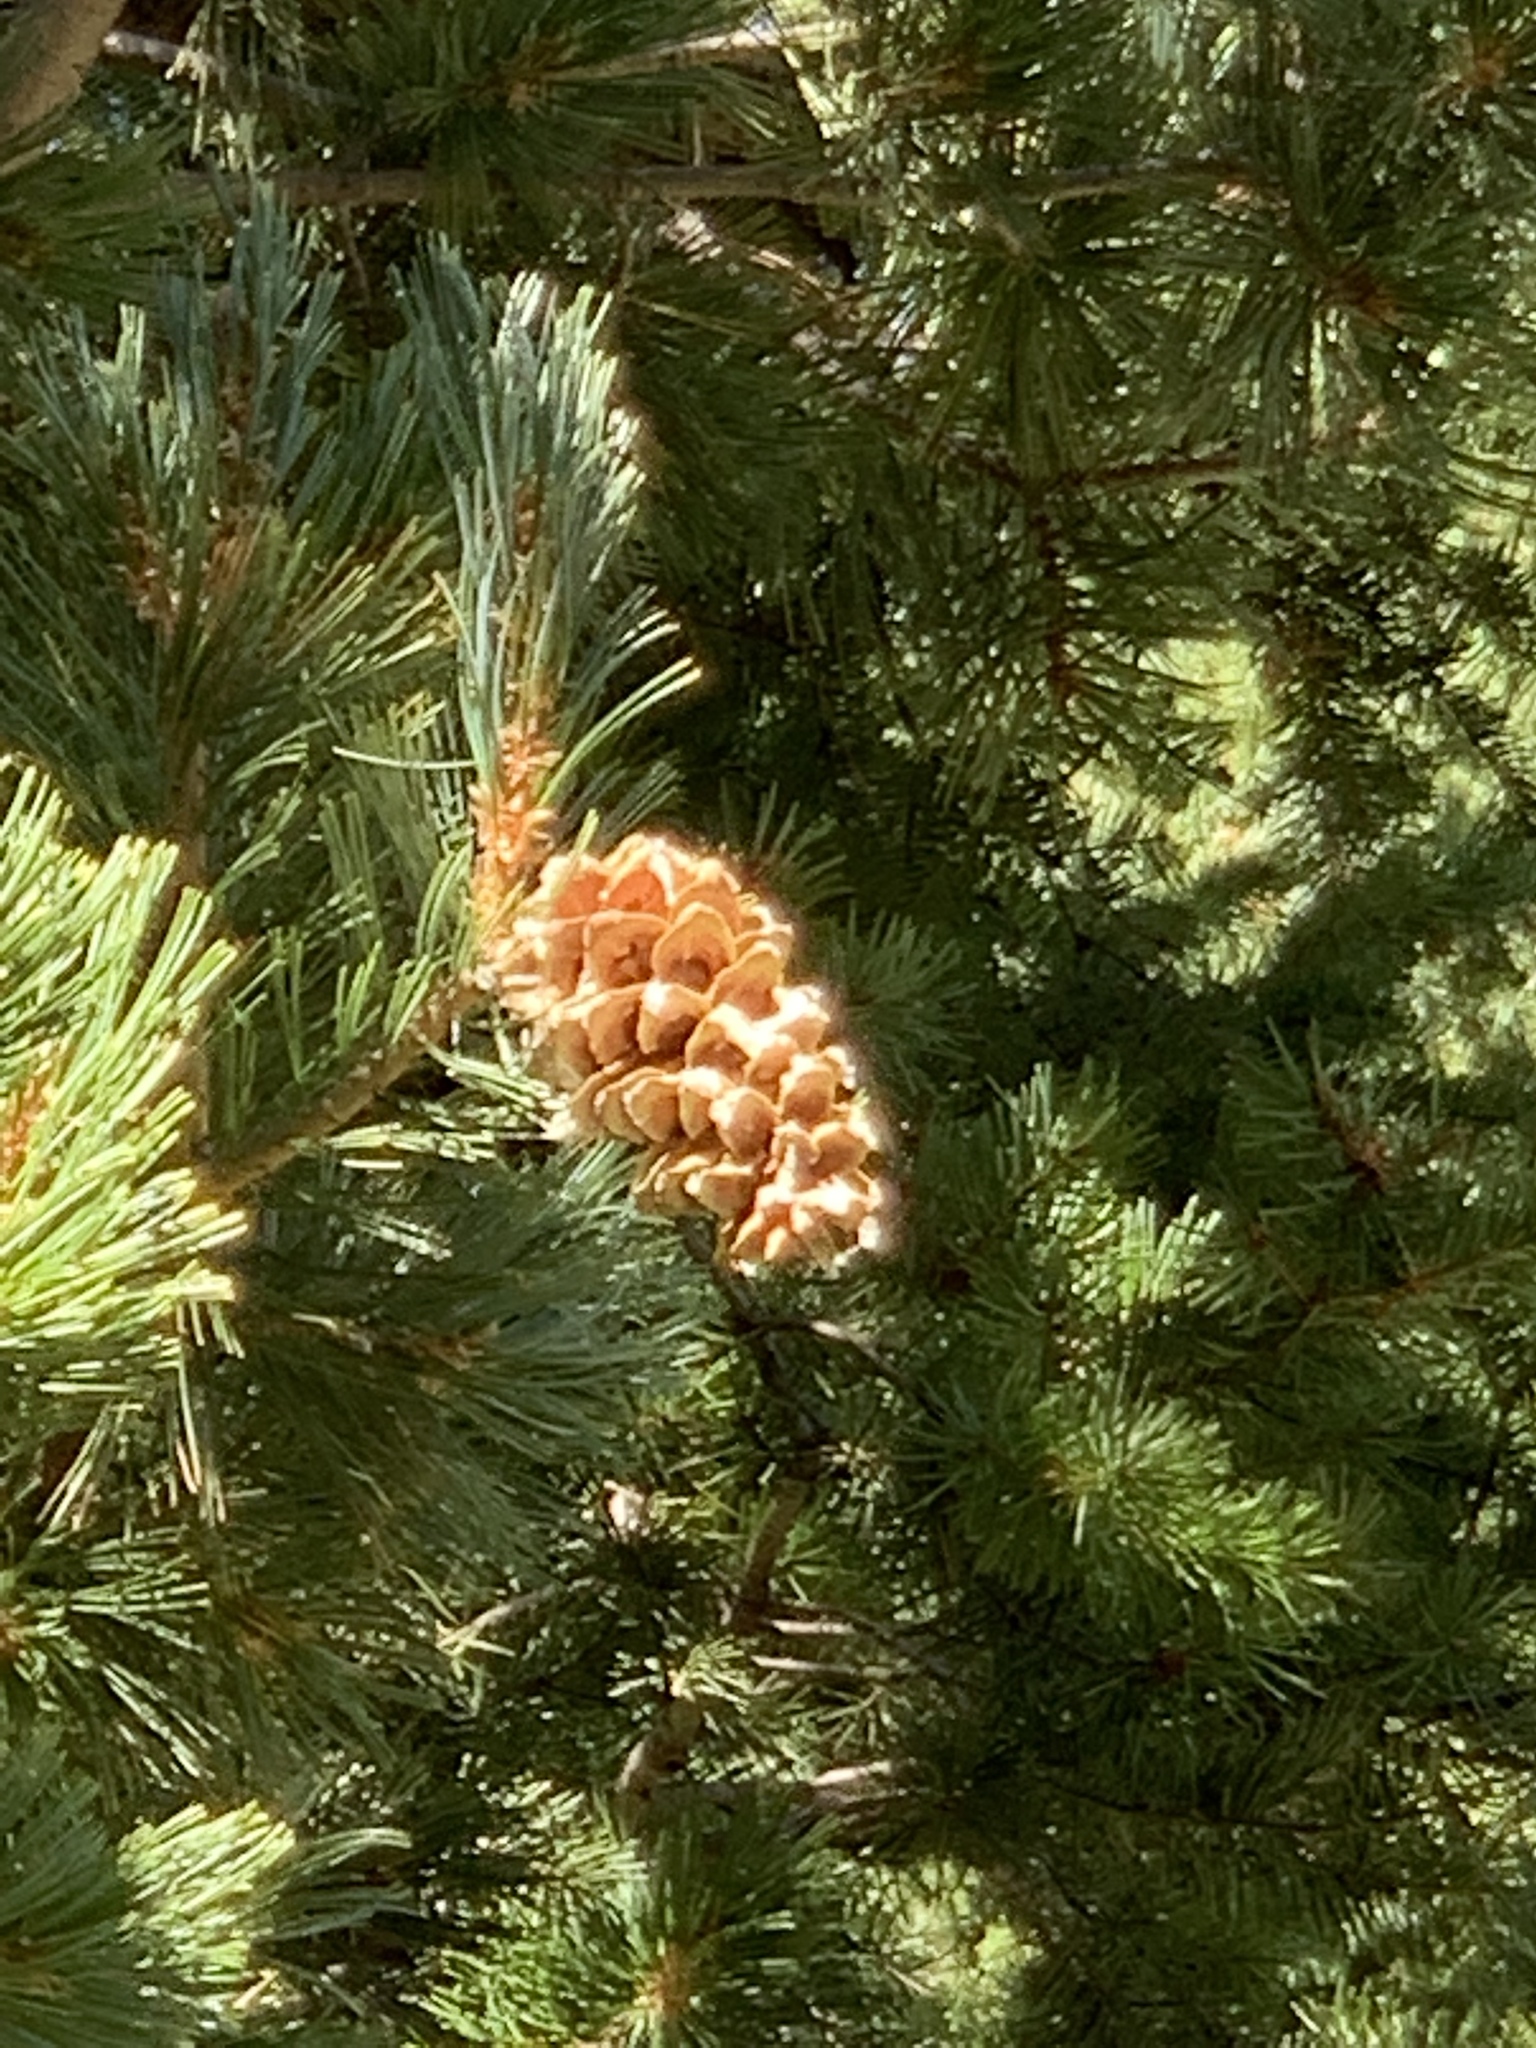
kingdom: Plantae
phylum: Tracheophyta
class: Pinopsida
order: Pinales
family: Pinaceae
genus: Pinus
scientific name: Pinus strobiformis
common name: Southwestern white pine
